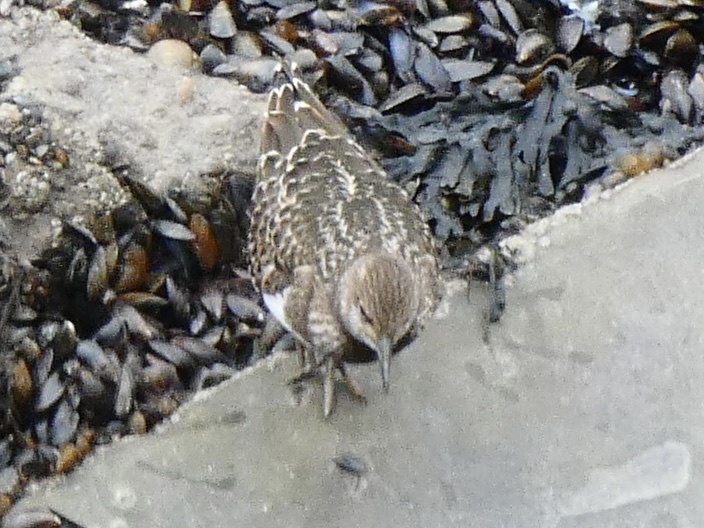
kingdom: Animalia
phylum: Chordata
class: Aves
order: Charadriiformes
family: Scolopacidae
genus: Arenaria
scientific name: Arenaria interpres
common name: Ruddy turnstone
